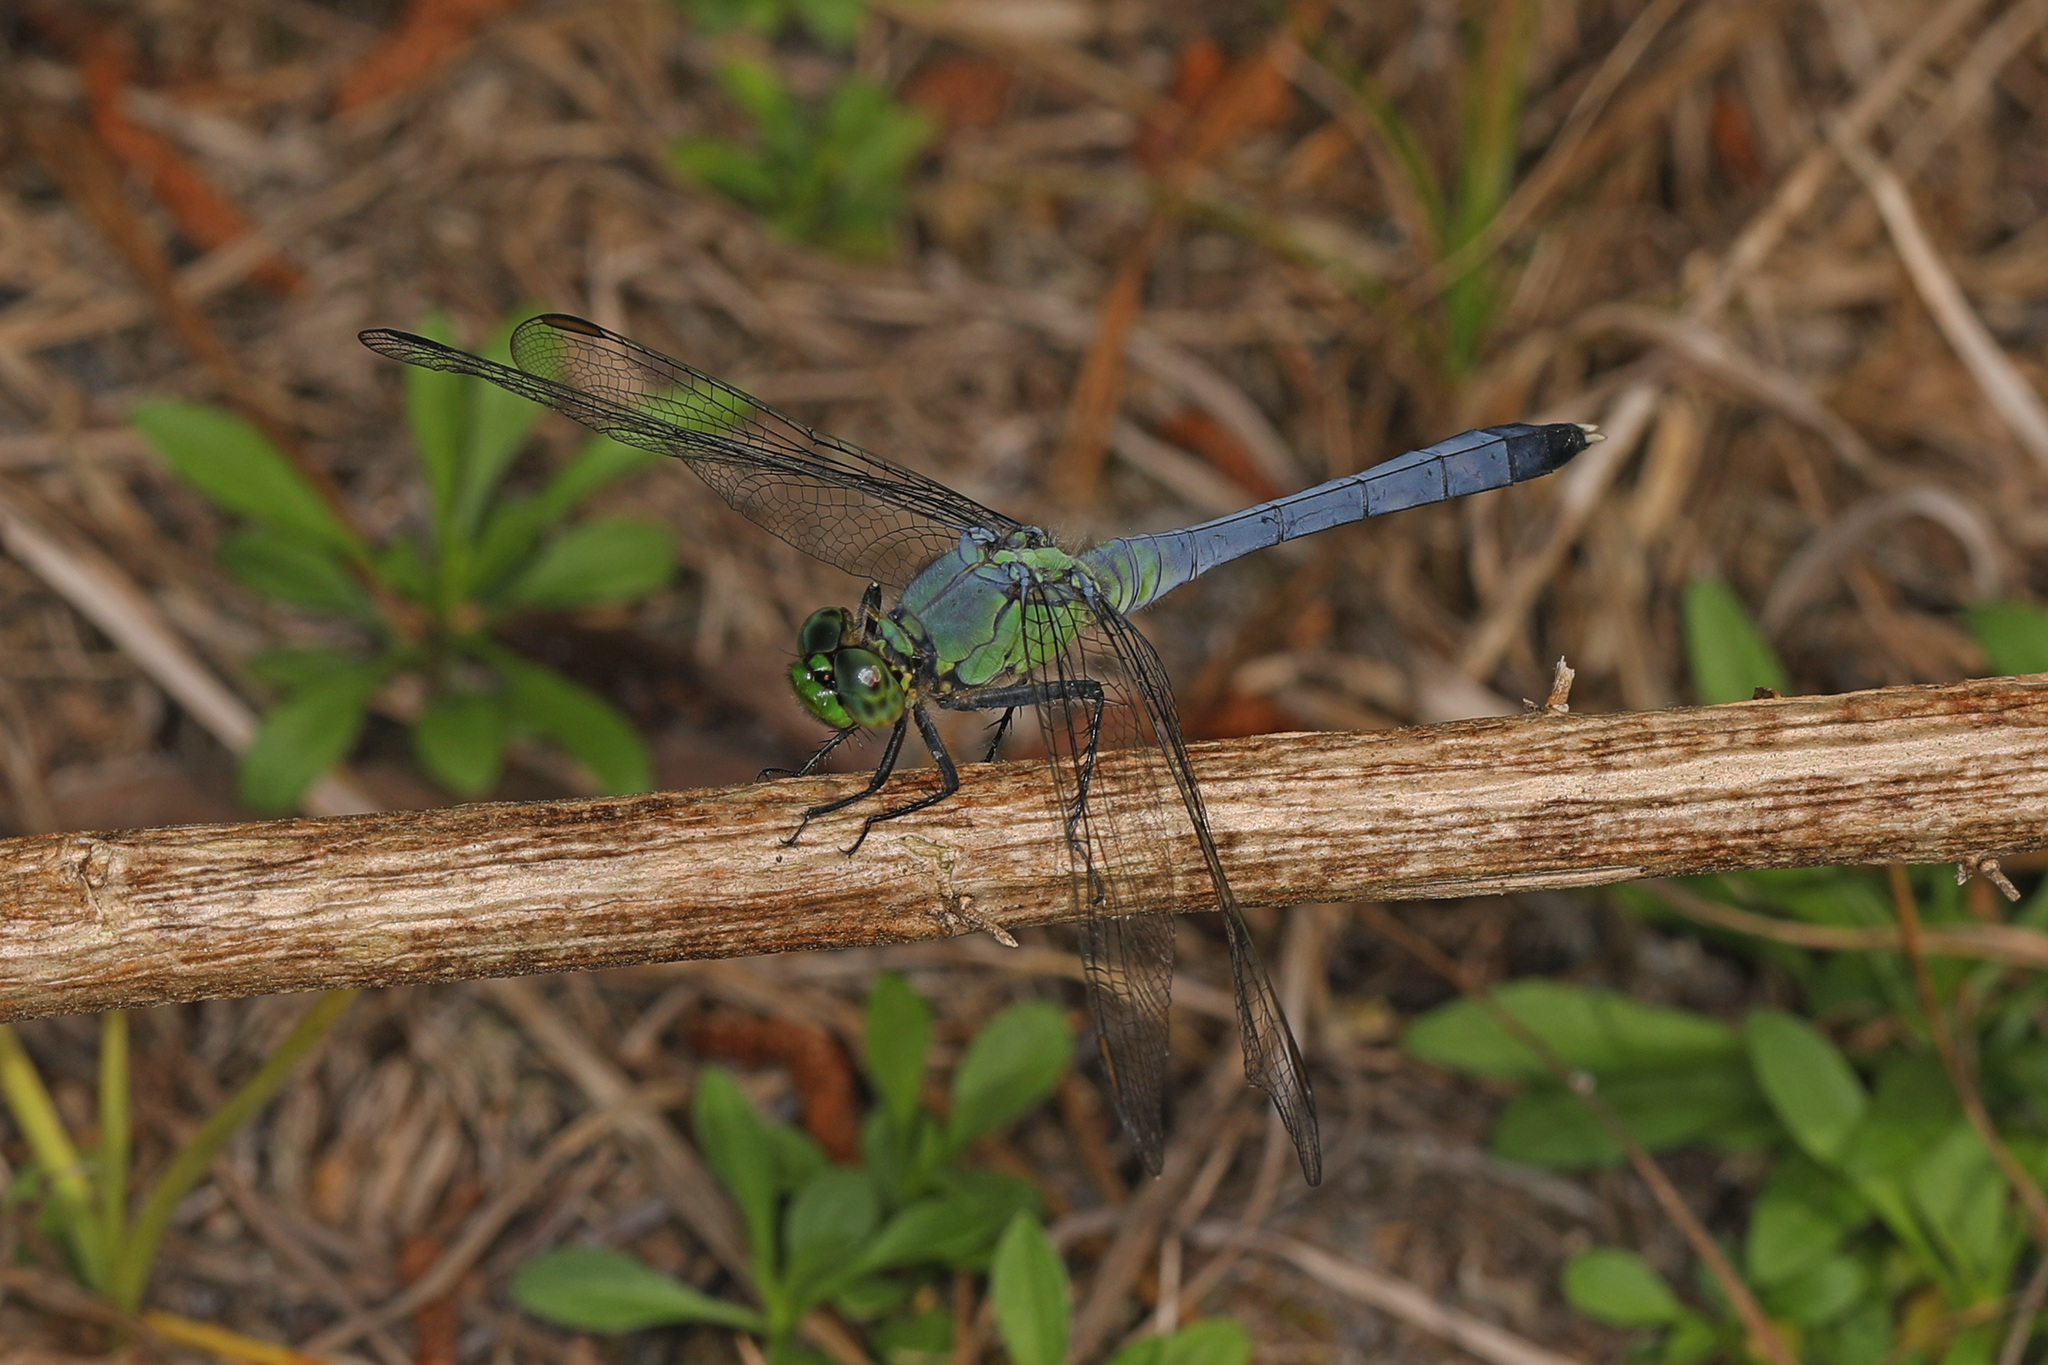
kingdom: Animalia
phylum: Arthropoda
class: Insecta
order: Odonata
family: Libellulidae
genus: Erythemis
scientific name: Erythemis simplicicollis
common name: Eastern pondhawk
